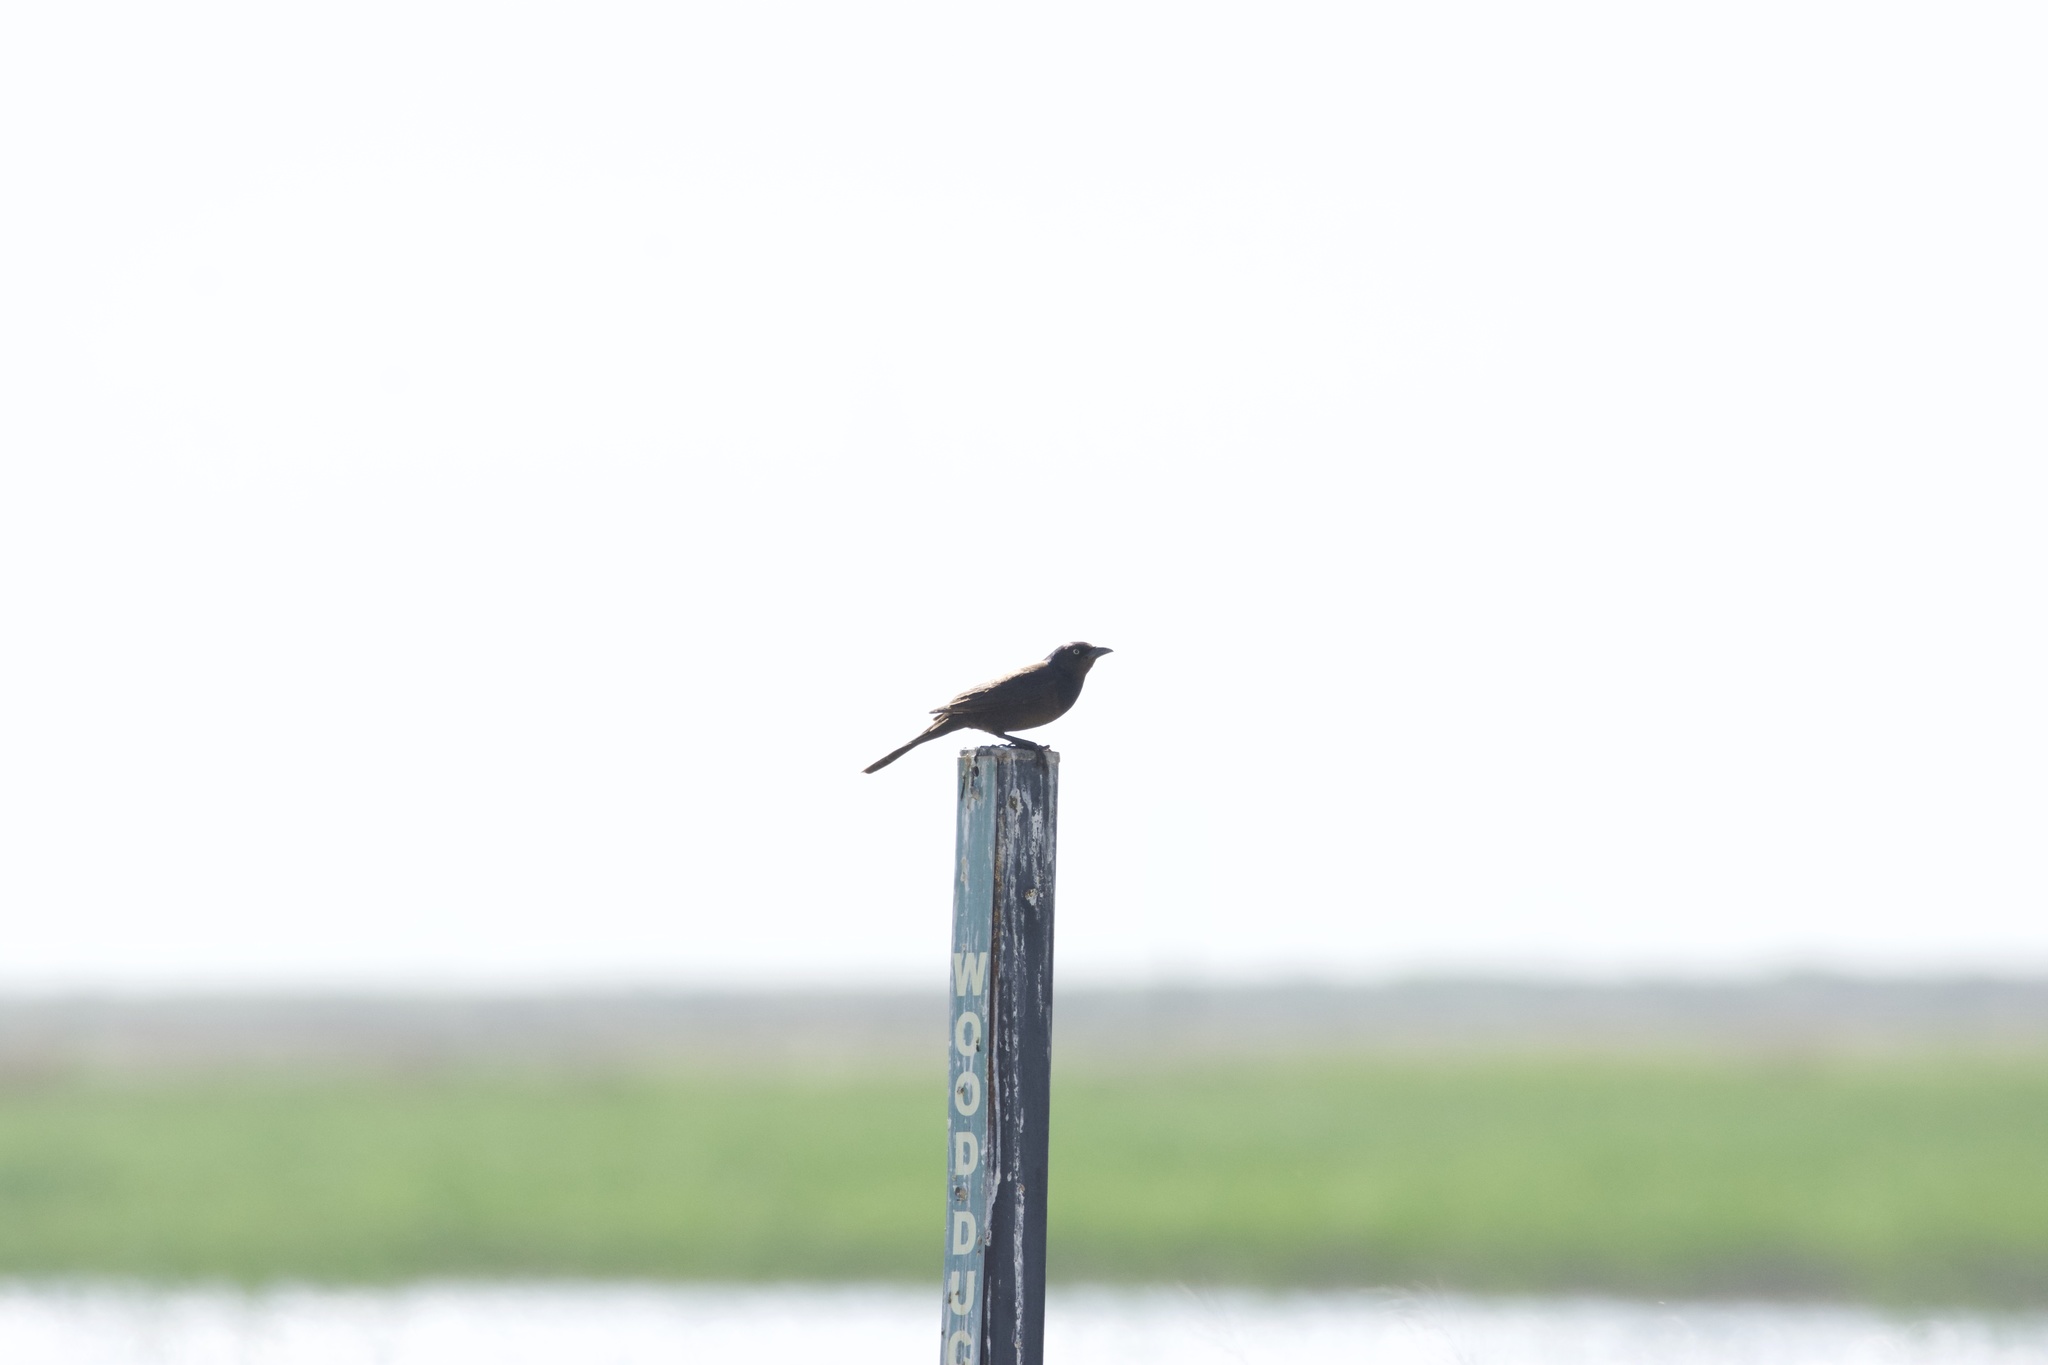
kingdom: Animalia
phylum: Chordata
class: Aves
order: Passeriformes
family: Icteridae
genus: Quiscalus
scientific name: Quiscalus quiscula
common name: Common grackle
